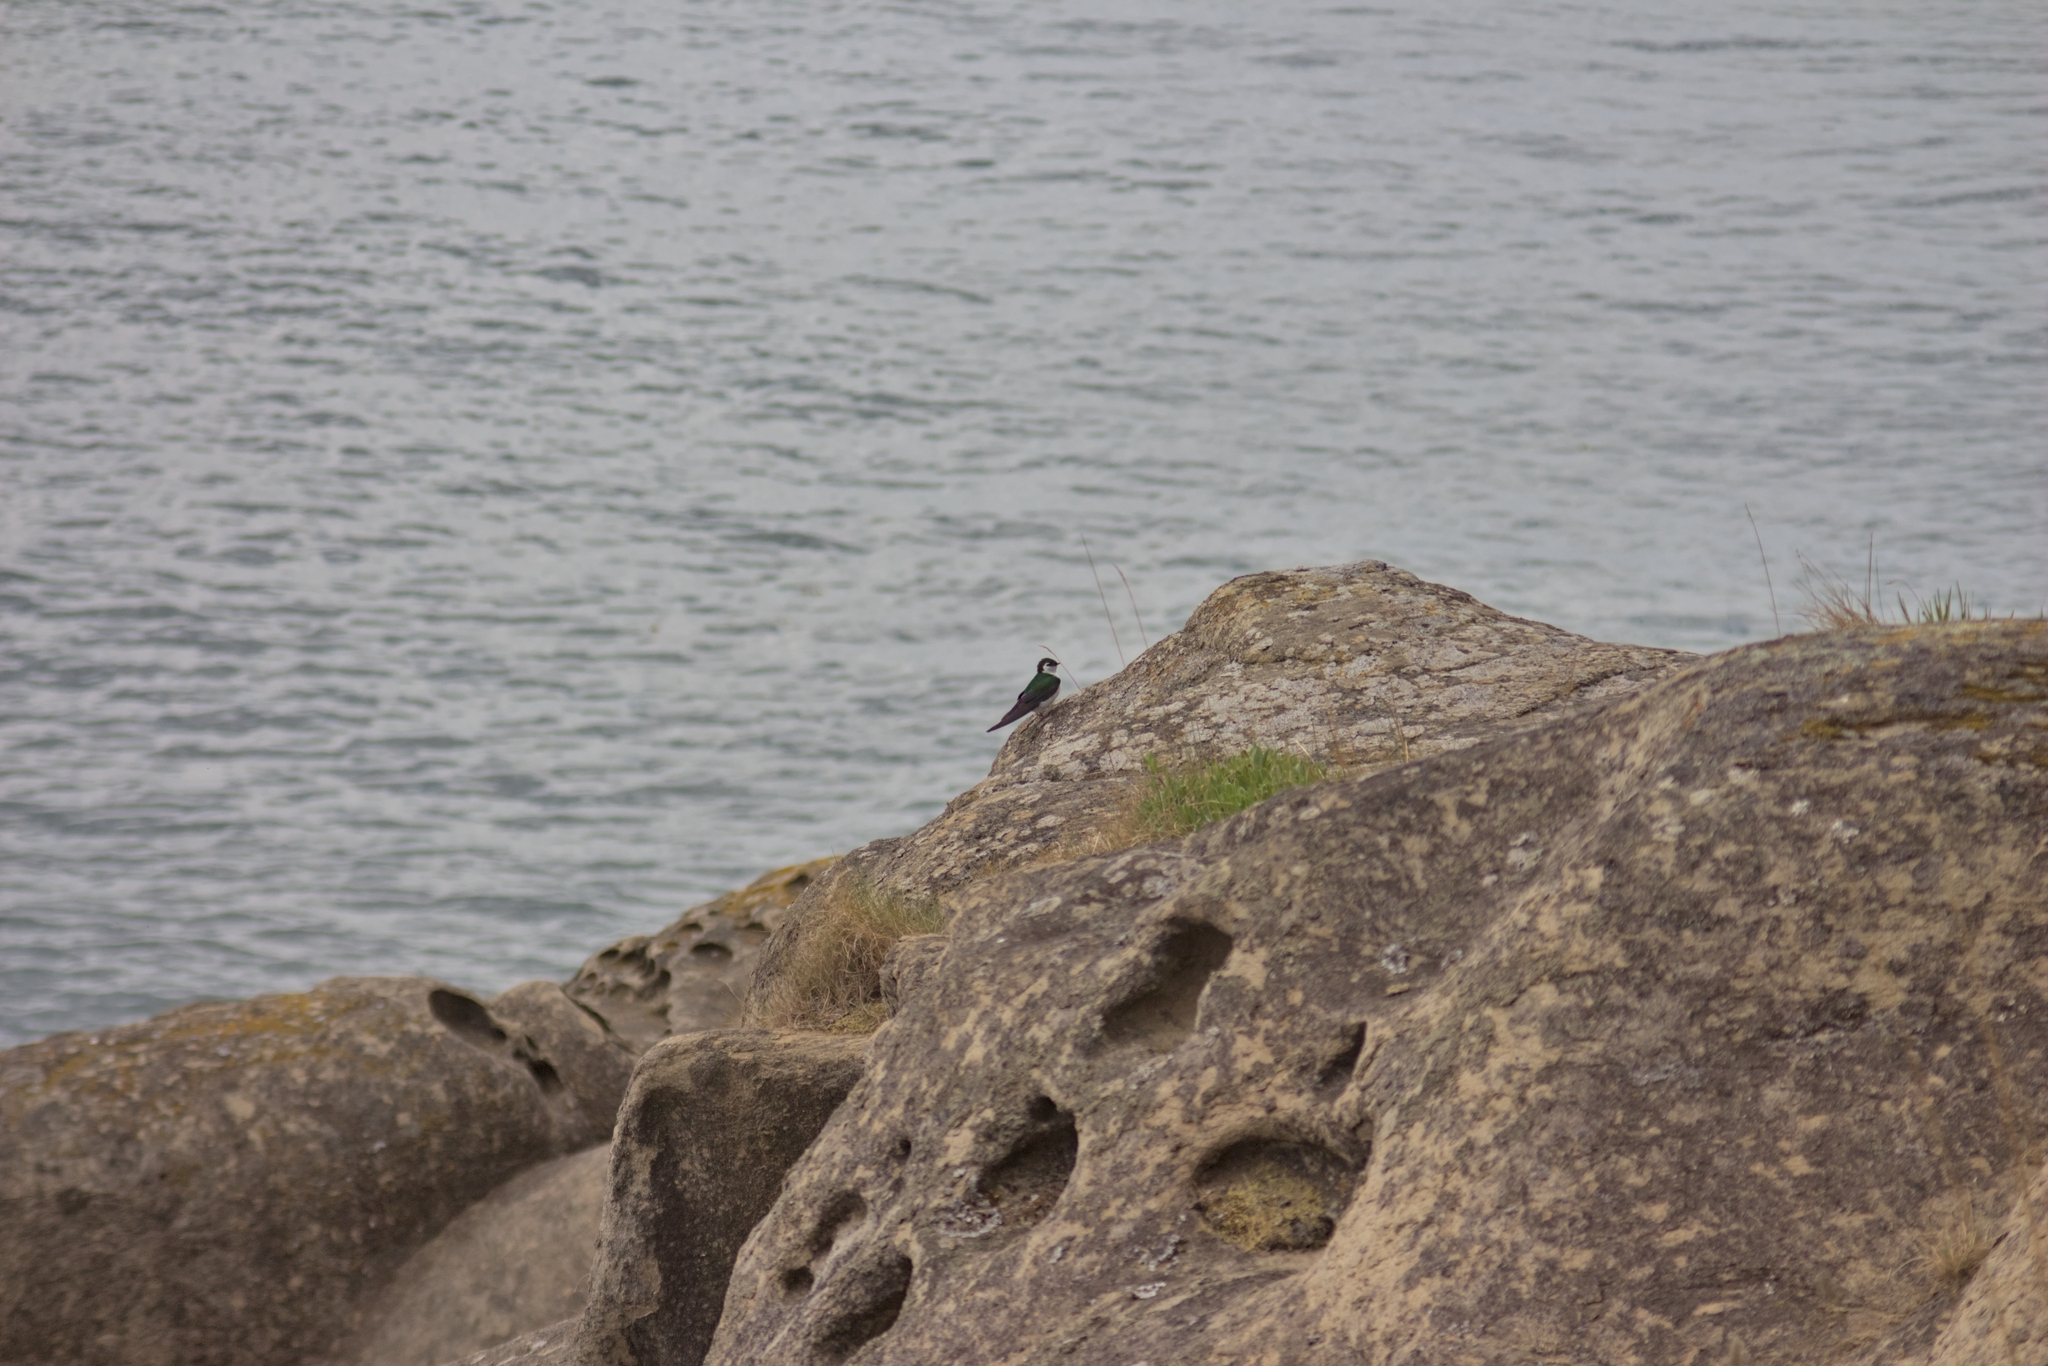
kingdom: Animalia
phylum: Chordata
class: Aves
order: Passeriformes
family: Hirundinidae
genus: Tachycineta
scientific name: Tachycineta thalassina
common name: Violet-green swallow
